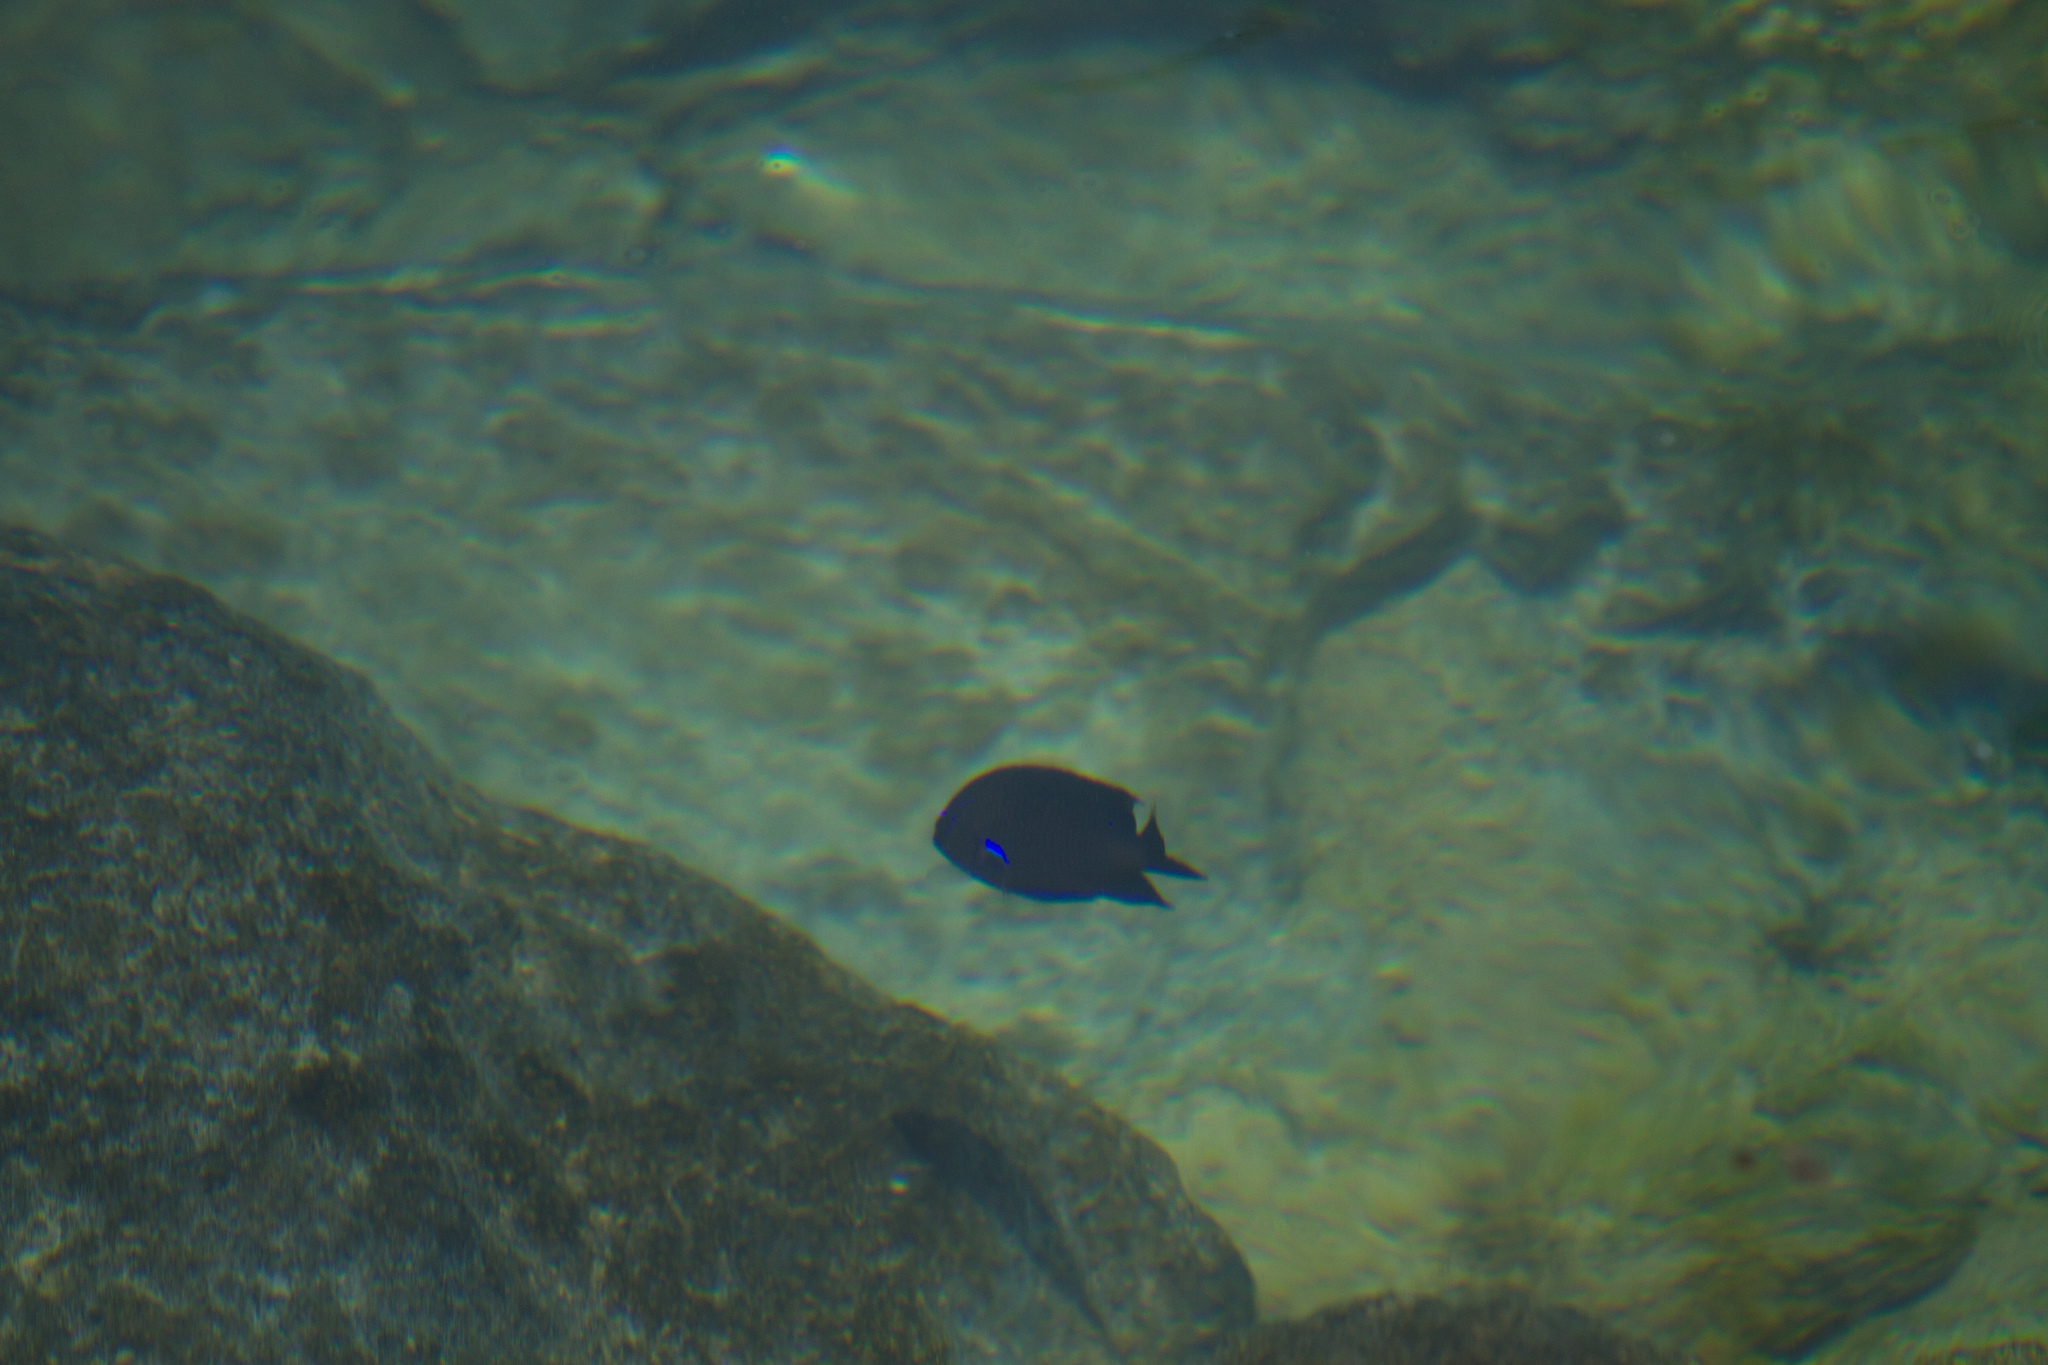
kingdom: Animalia
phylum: Chordata
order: Perciformes
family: Pomacentridae
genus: Similiparma
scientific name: Similiparma lurida
